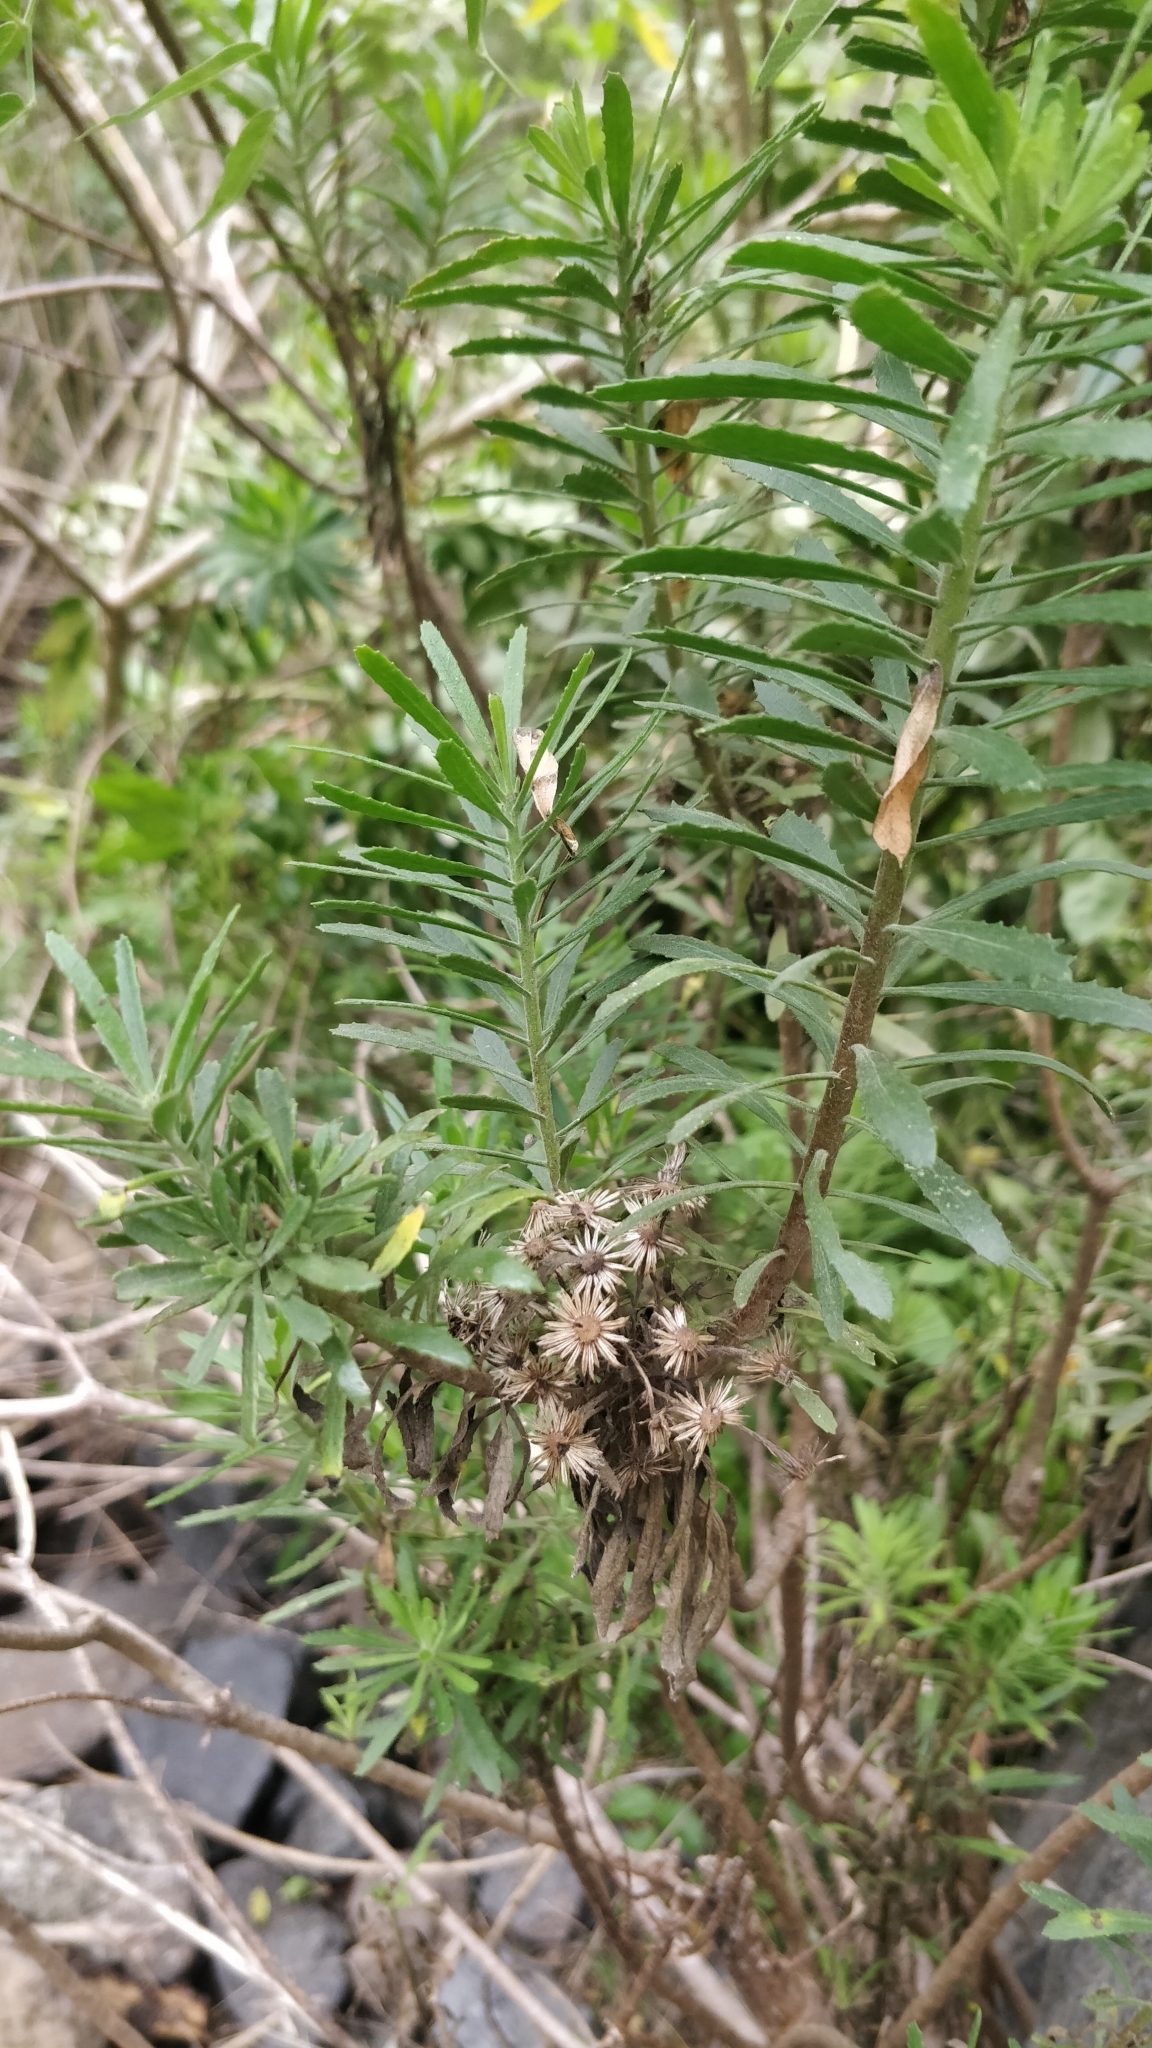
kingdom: Plantae
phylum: Tracheophyta
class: Magnoliopsida
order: Asterales
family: Asteraceae
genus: Allagopappus
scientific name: Allagopappus canariensis
